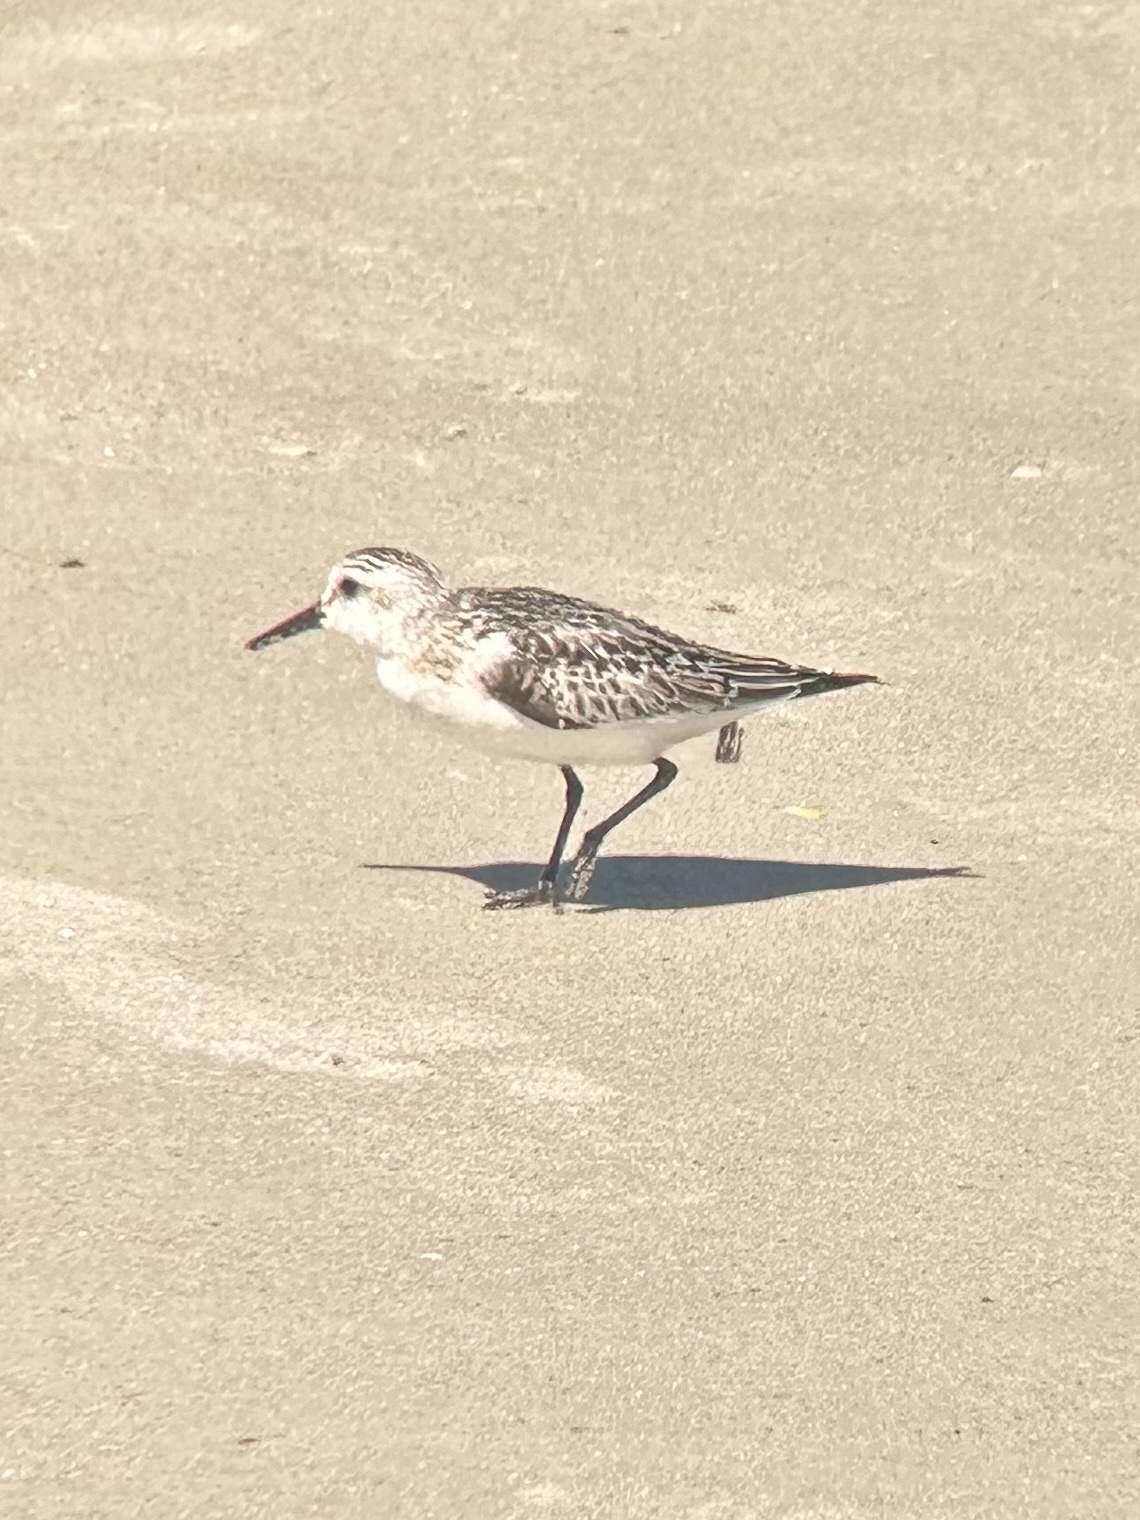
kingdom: Animalia
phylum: Chordata
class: Aves
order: Charadriiformes
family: Scolopacidae
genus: Calidris
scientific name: Calidris alba
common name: Sanderling
